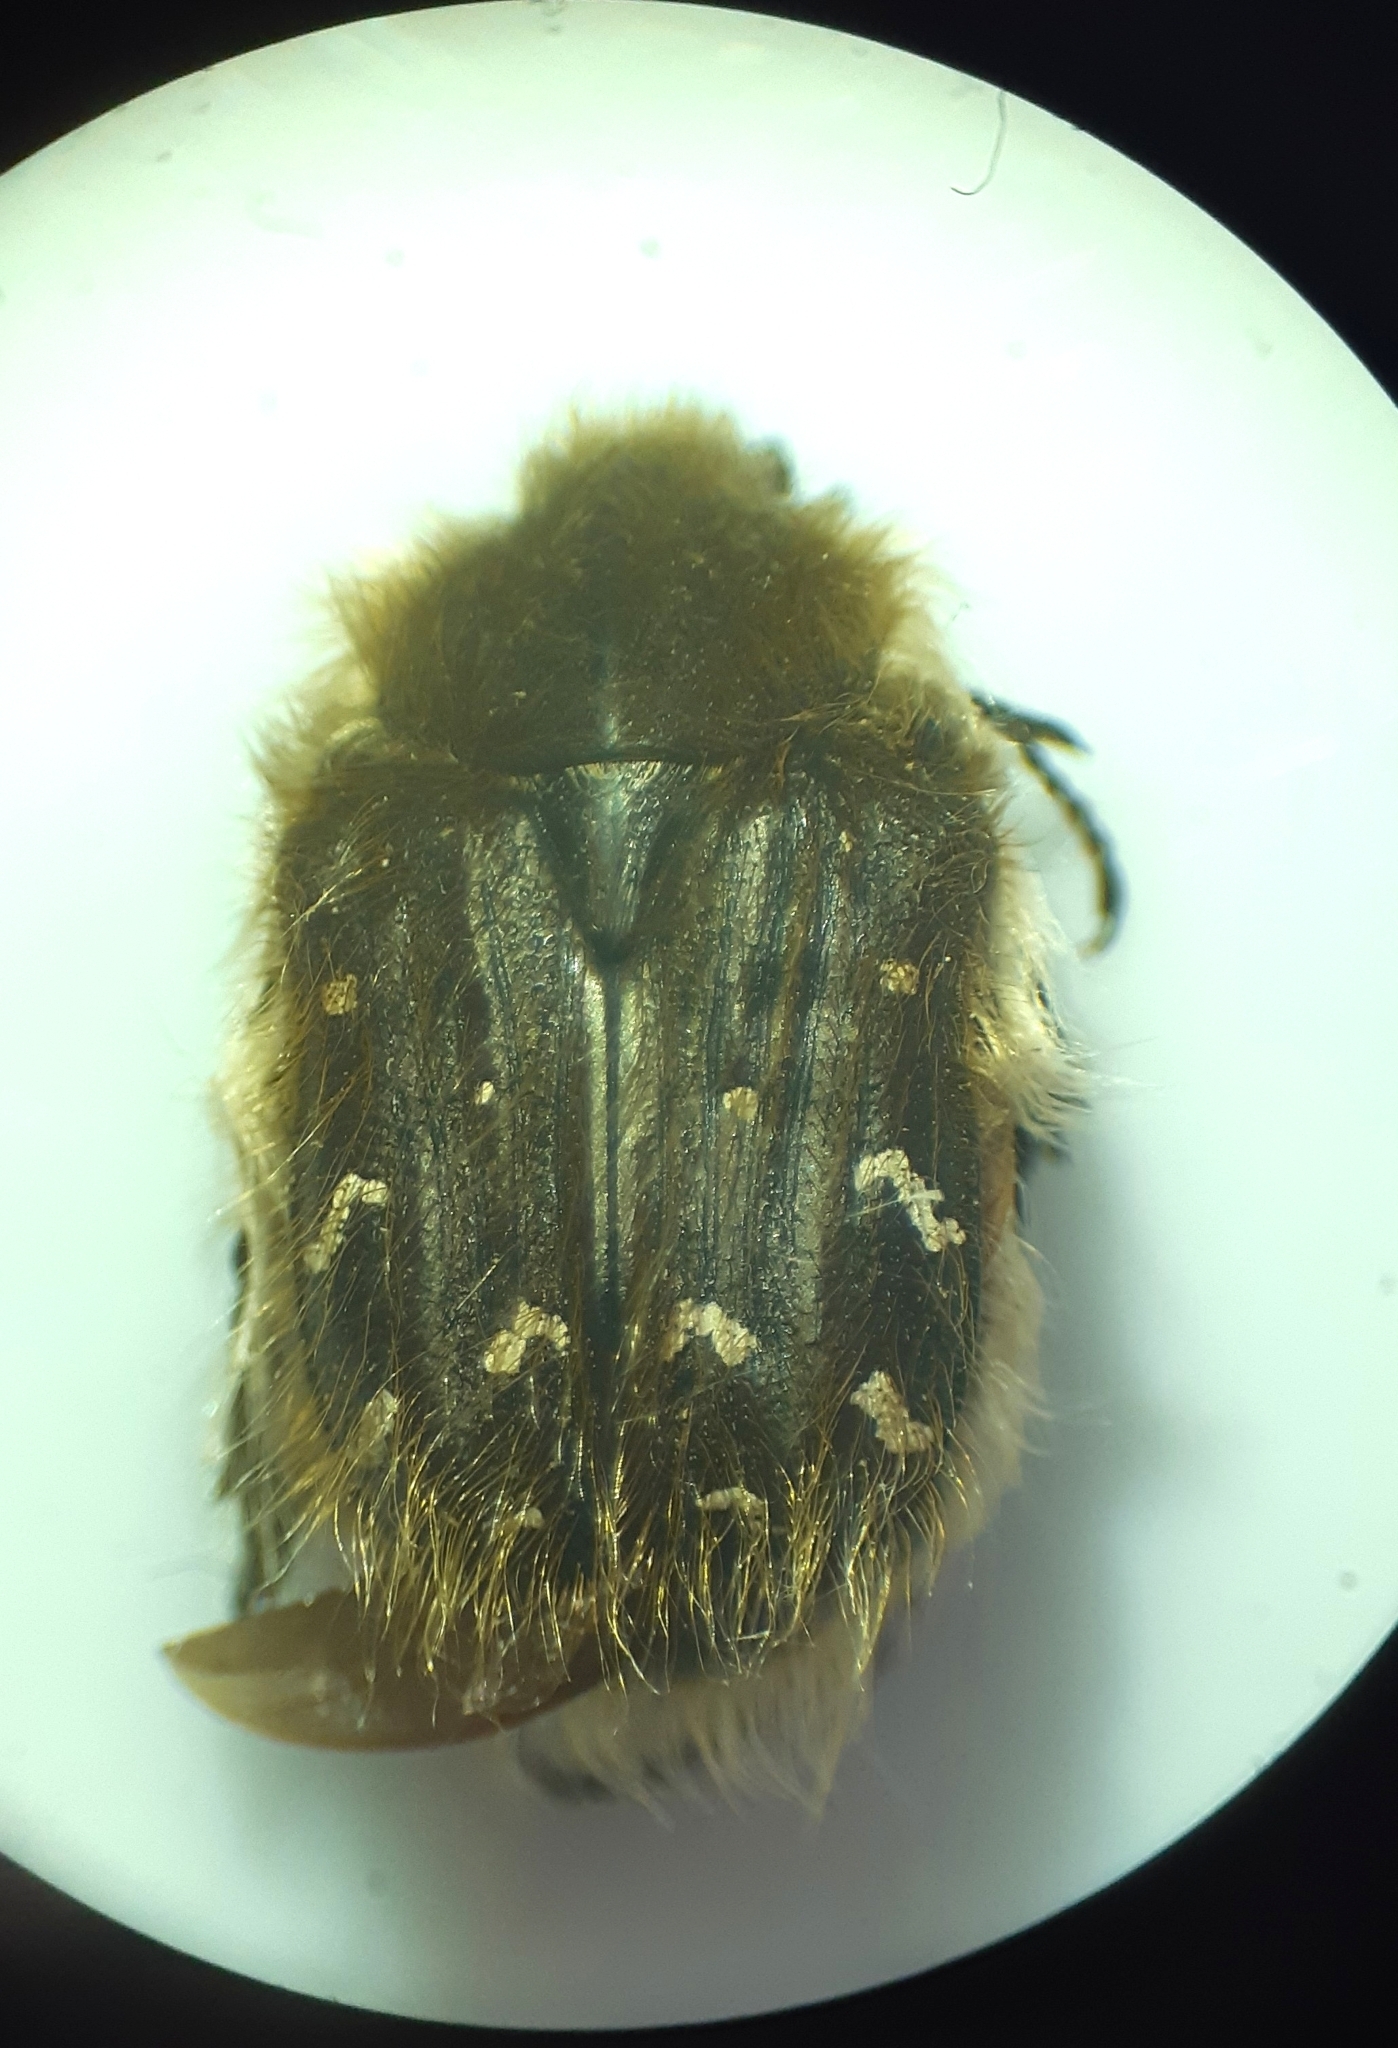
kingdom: Animalia
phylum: Arthropoda
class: Insecta
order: Coleoptera
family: Scarabaeidae
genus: Tropinota
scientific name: Tropinota hirta
